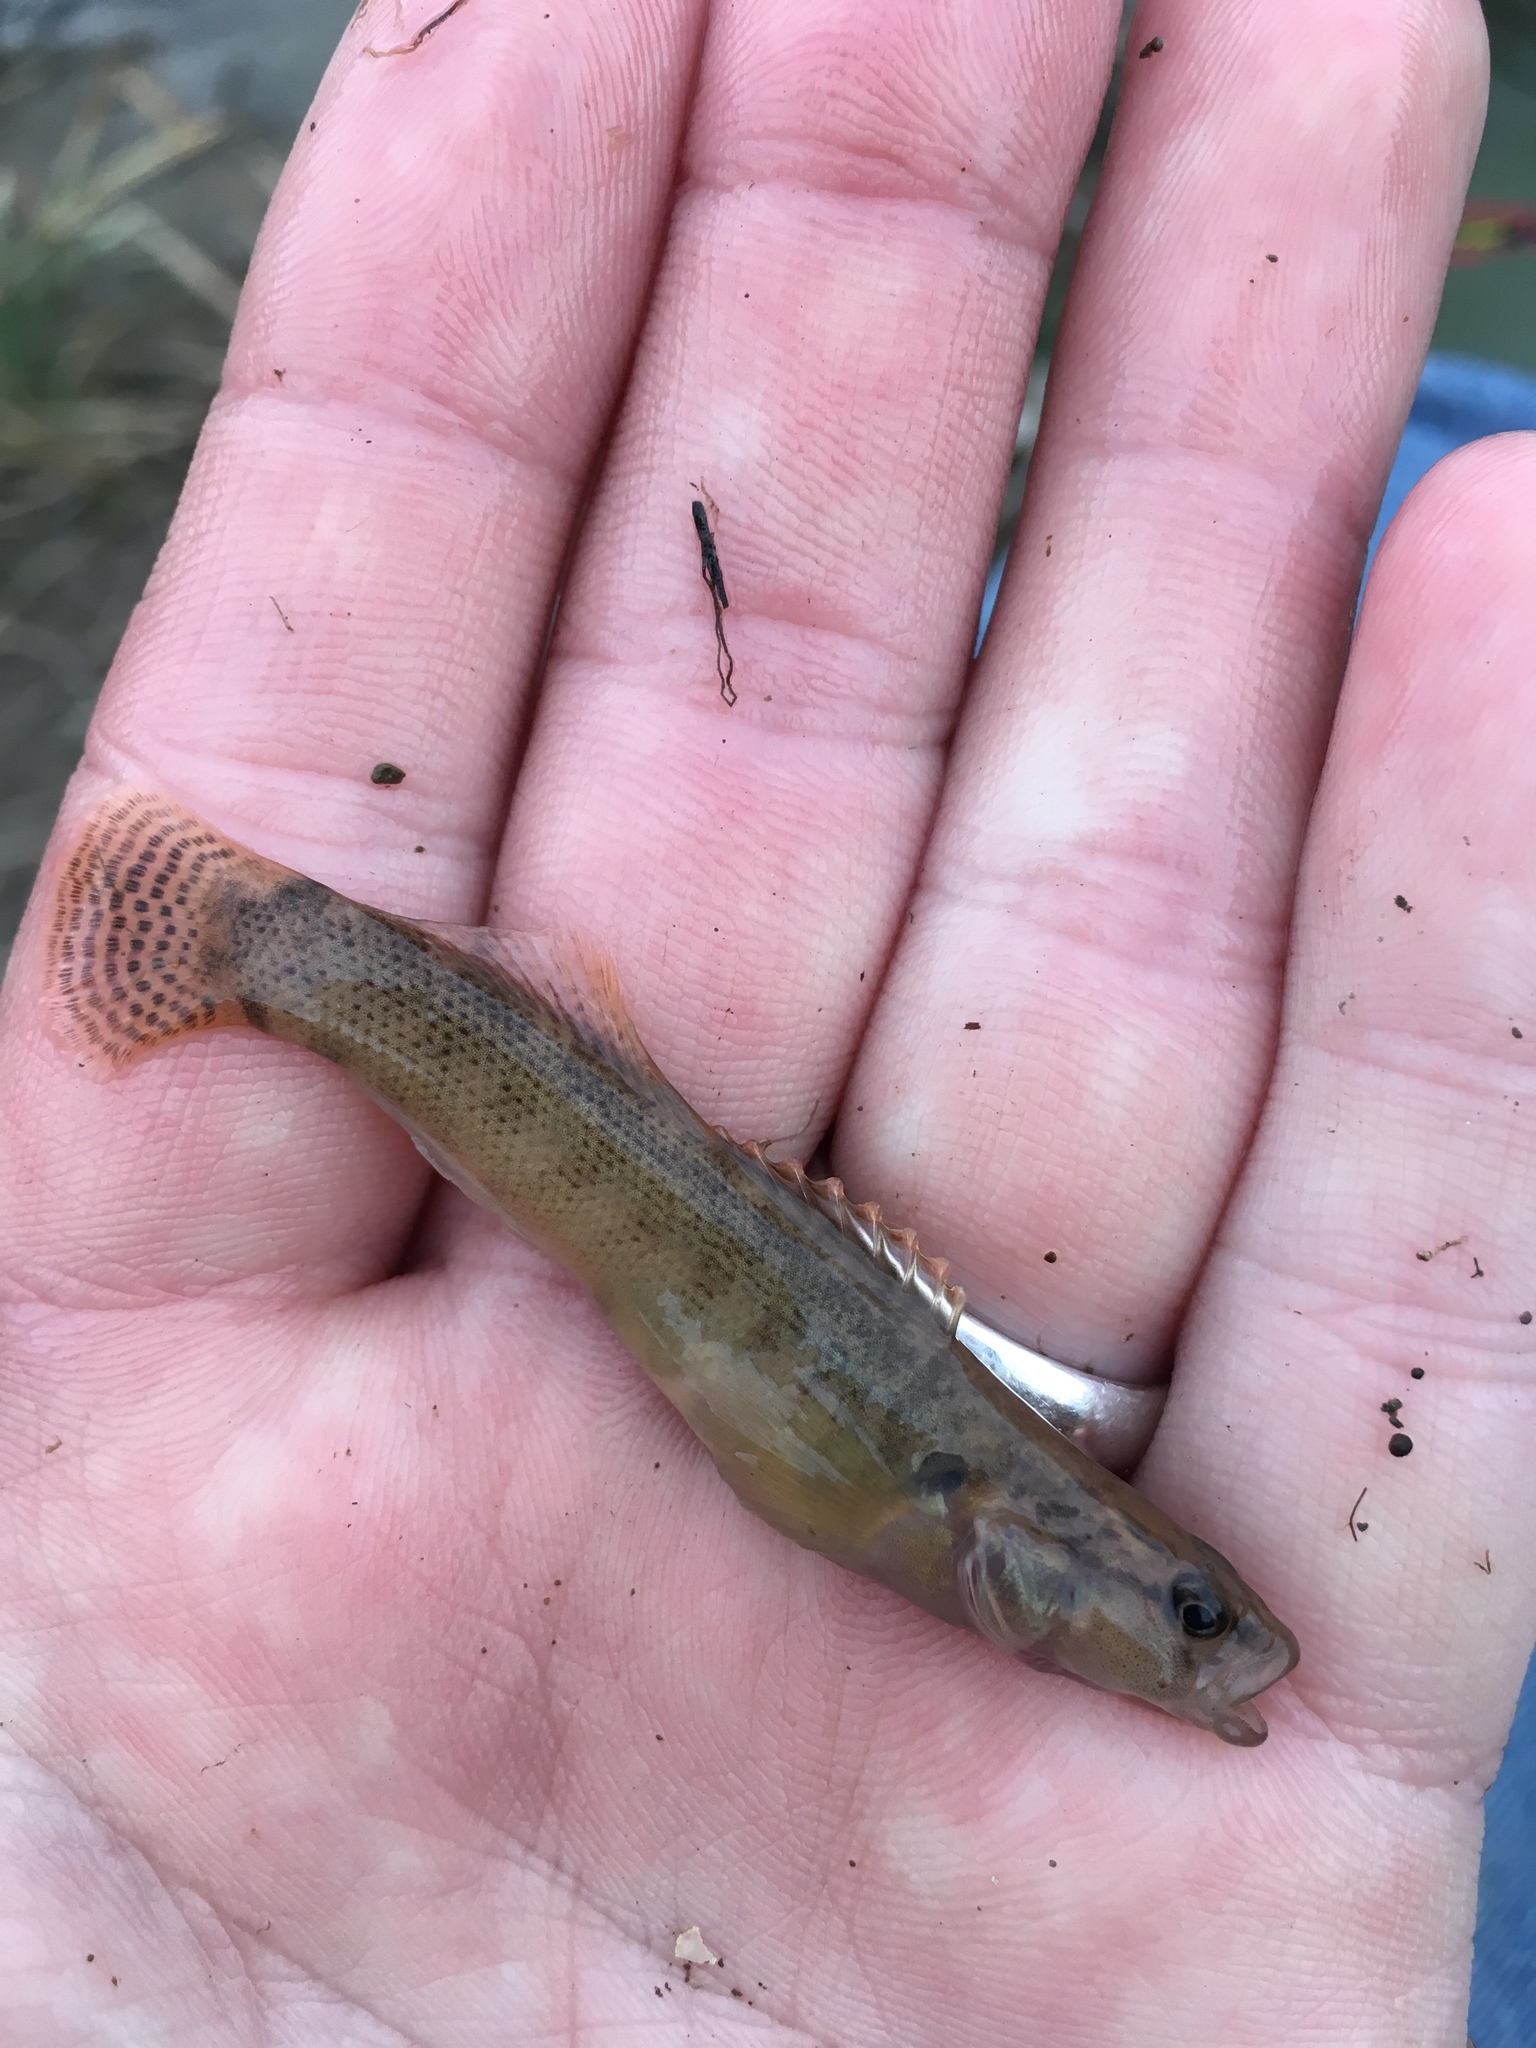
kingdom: Animalia
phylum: Chordata
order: Perciformes
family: Percidae
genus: Etheostoma
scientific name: Etheostoma flabellare
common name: Fantail darter
